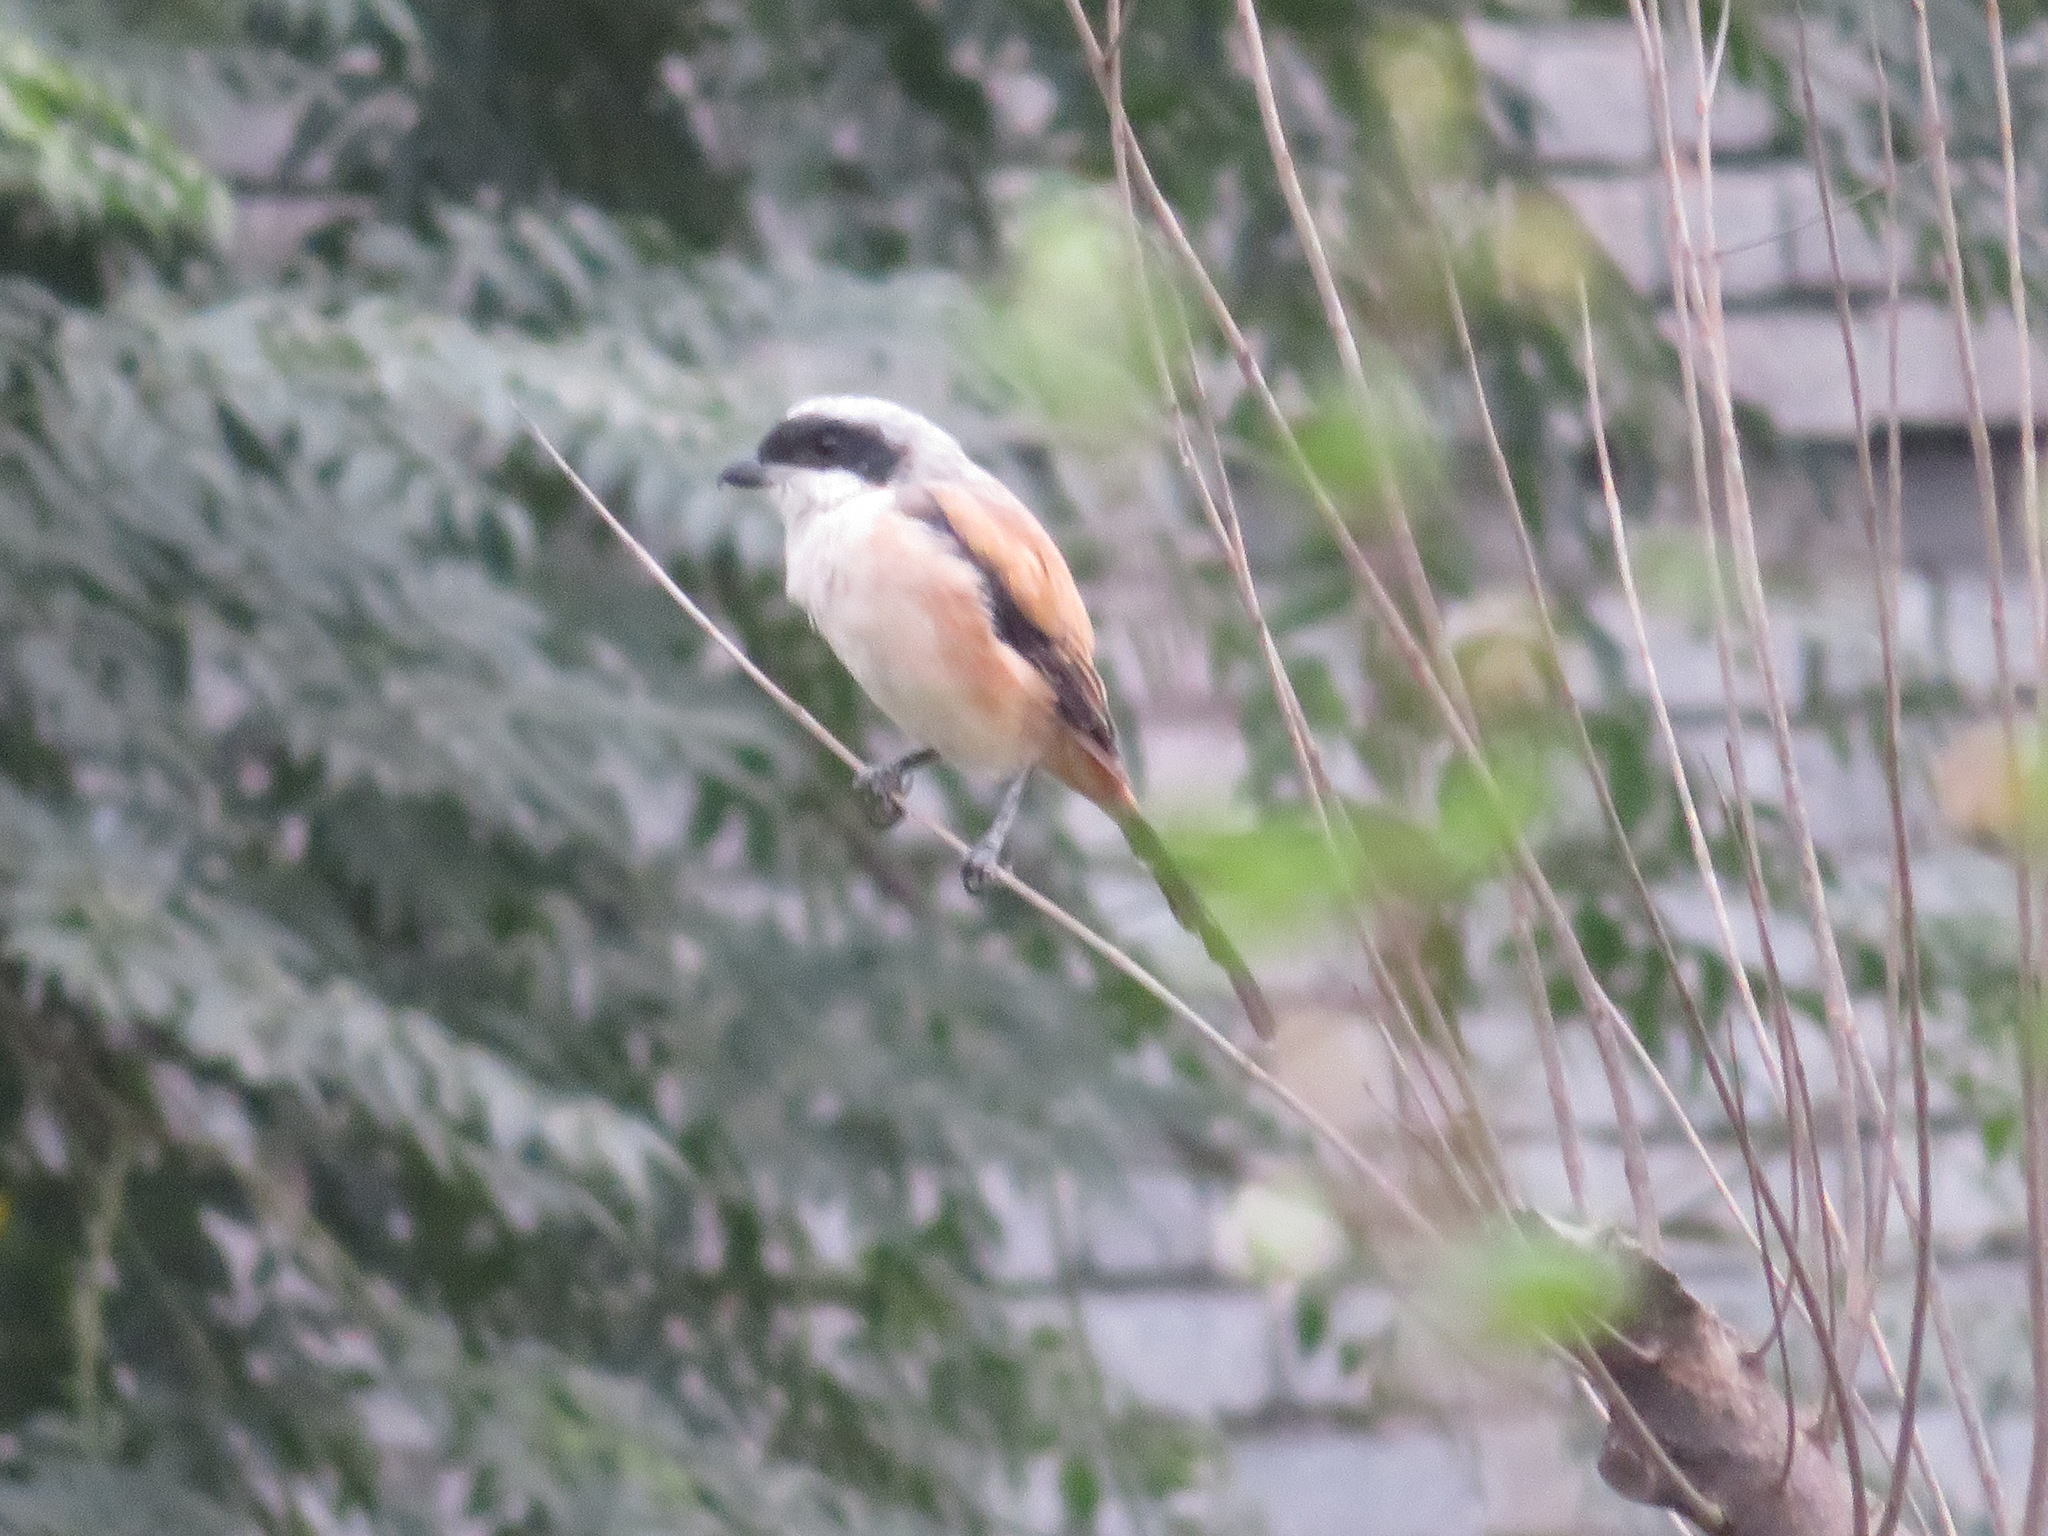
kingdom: Animalia
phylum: Chordata
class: Aves
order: Passeriformes
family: Laniidae
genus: Lanius
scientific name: Lanius schach
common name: Long-tailed shrike
